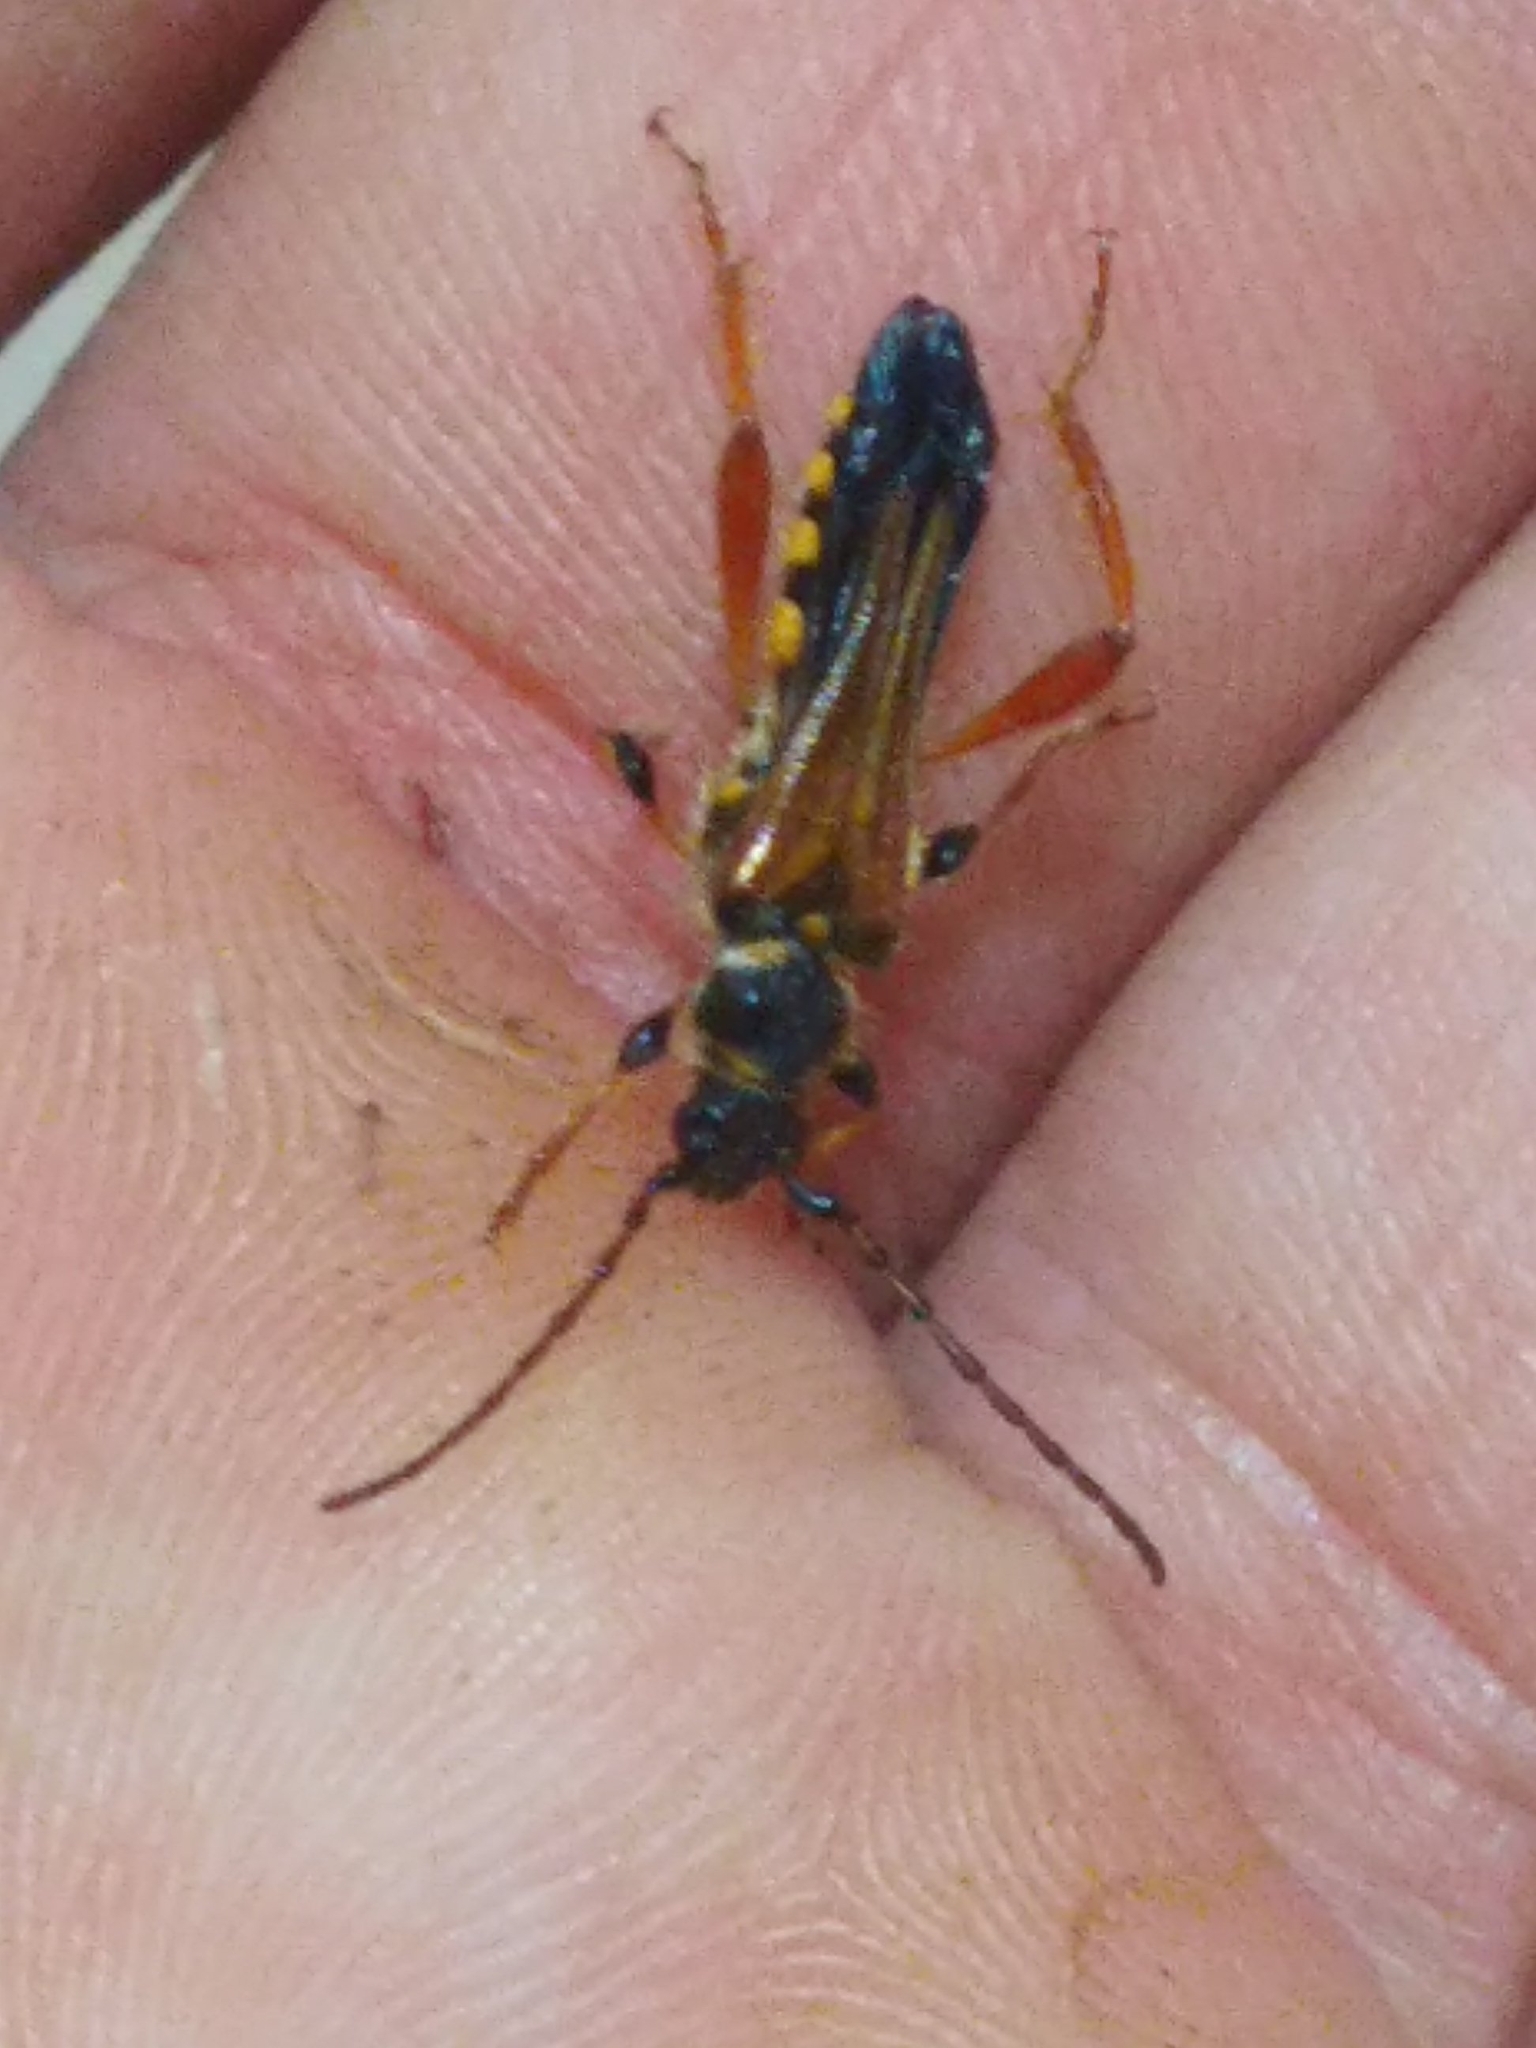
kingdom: Animalia
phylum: Arthropoda
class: Insecta
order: Coleoptera
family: Cerambycidae
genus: Stenopterus
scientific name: Stenopterus rufus
